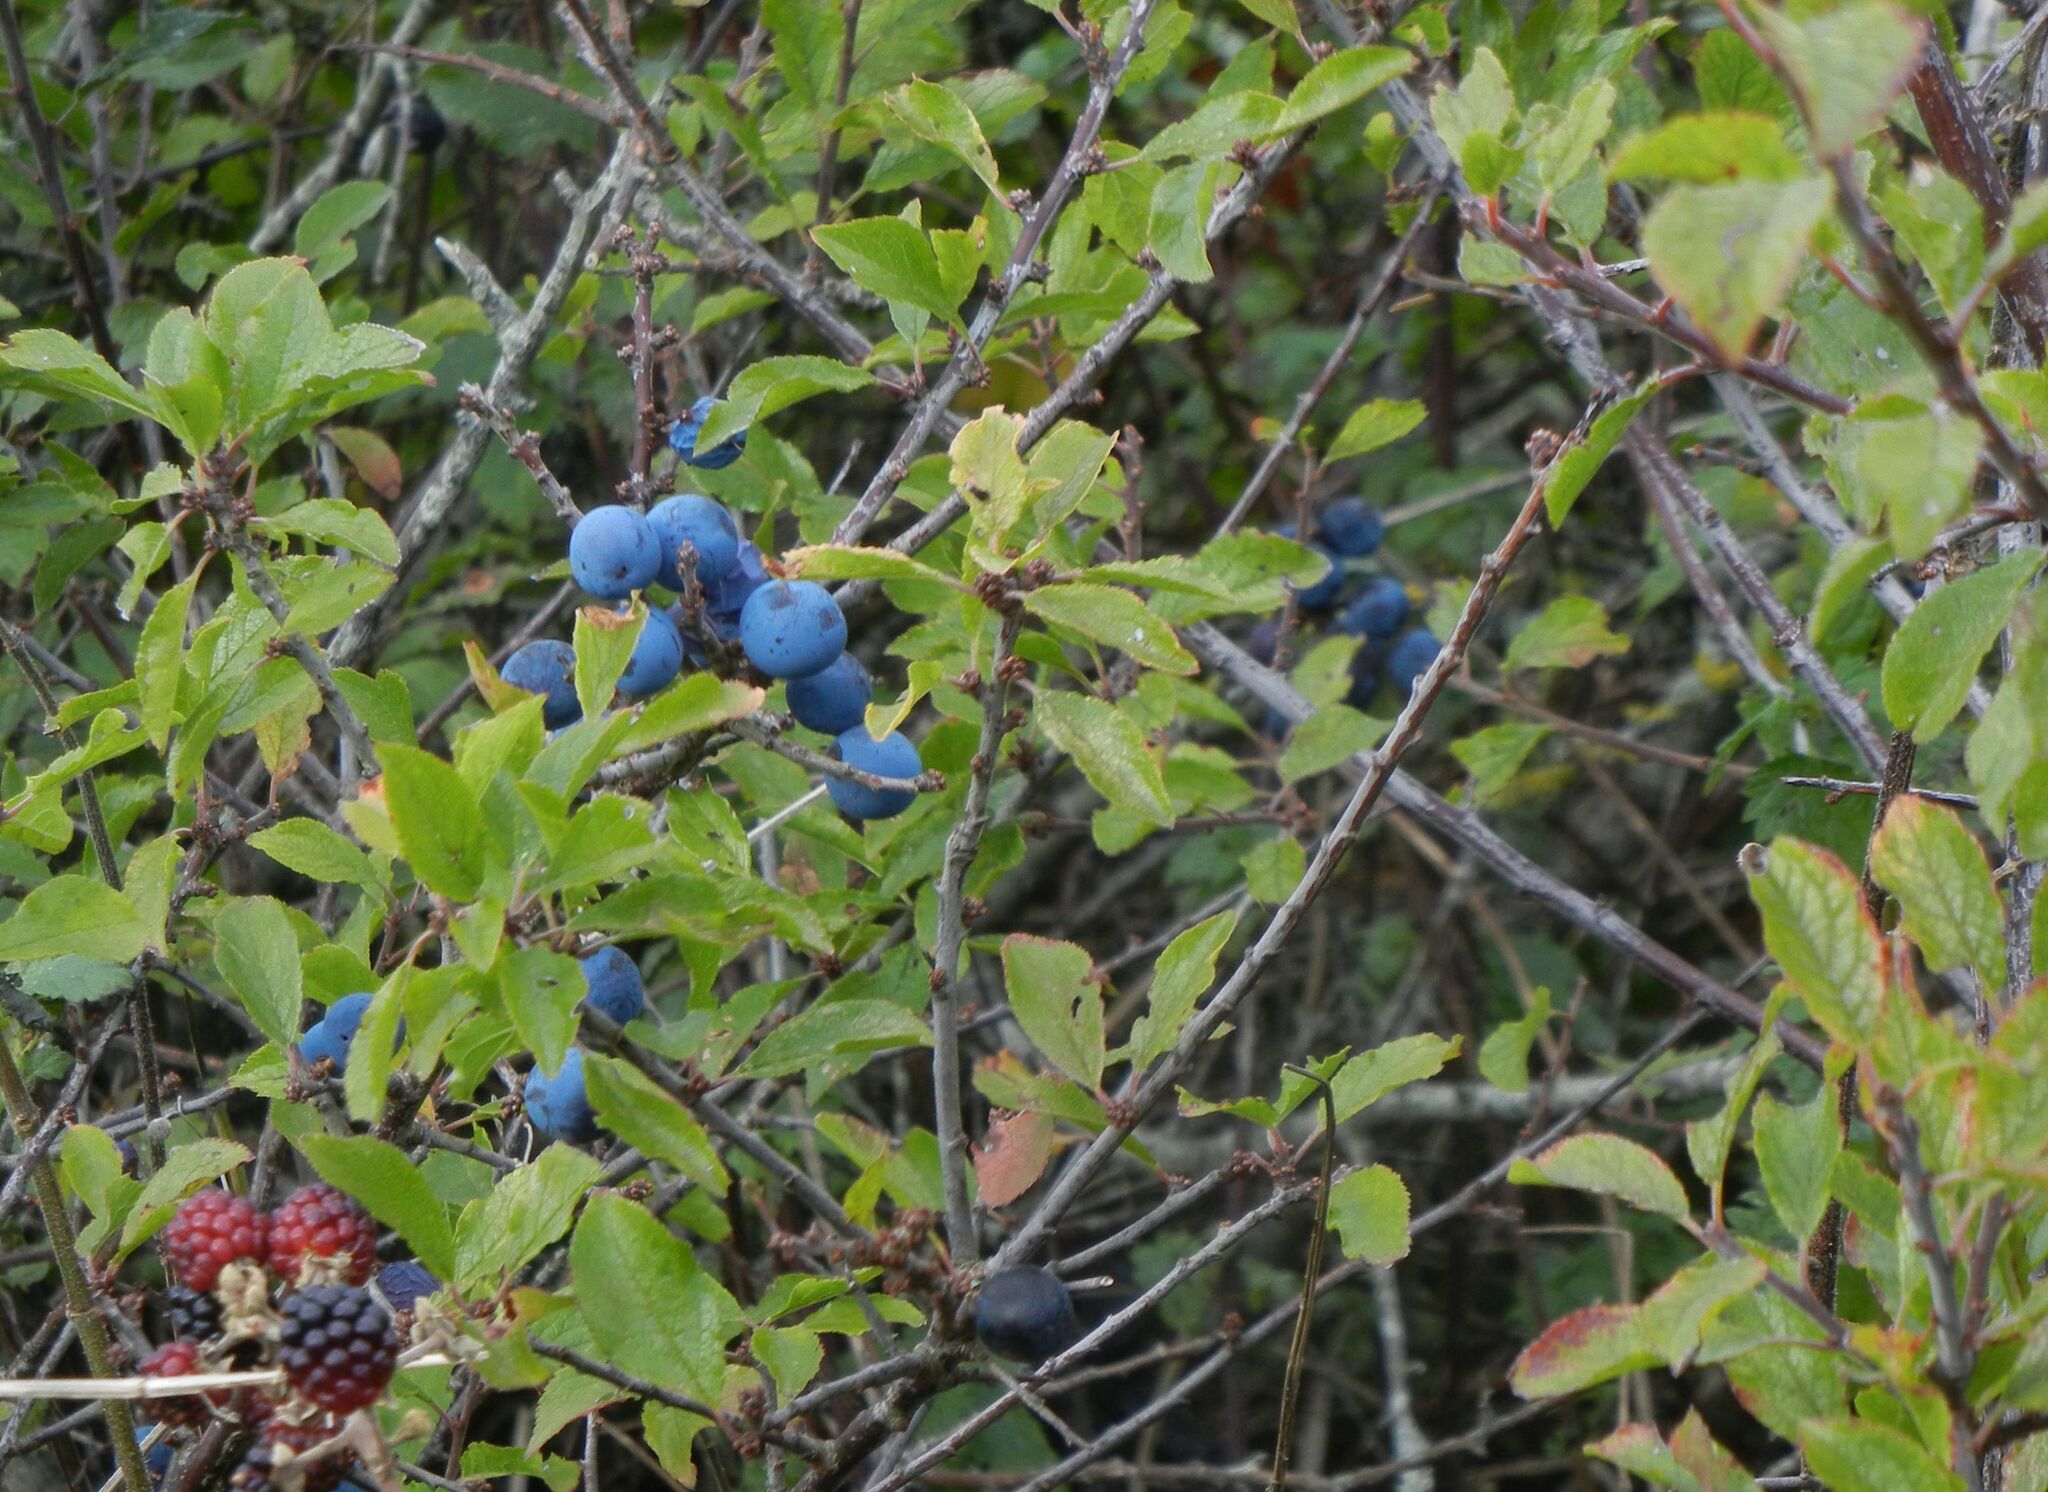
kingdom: Plantae
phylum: Tracheophyta
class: Magnoliopsida
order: Rosales
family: Rosaceae
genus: Prunus
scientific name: Prunus spinosa
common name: Blackthorn
